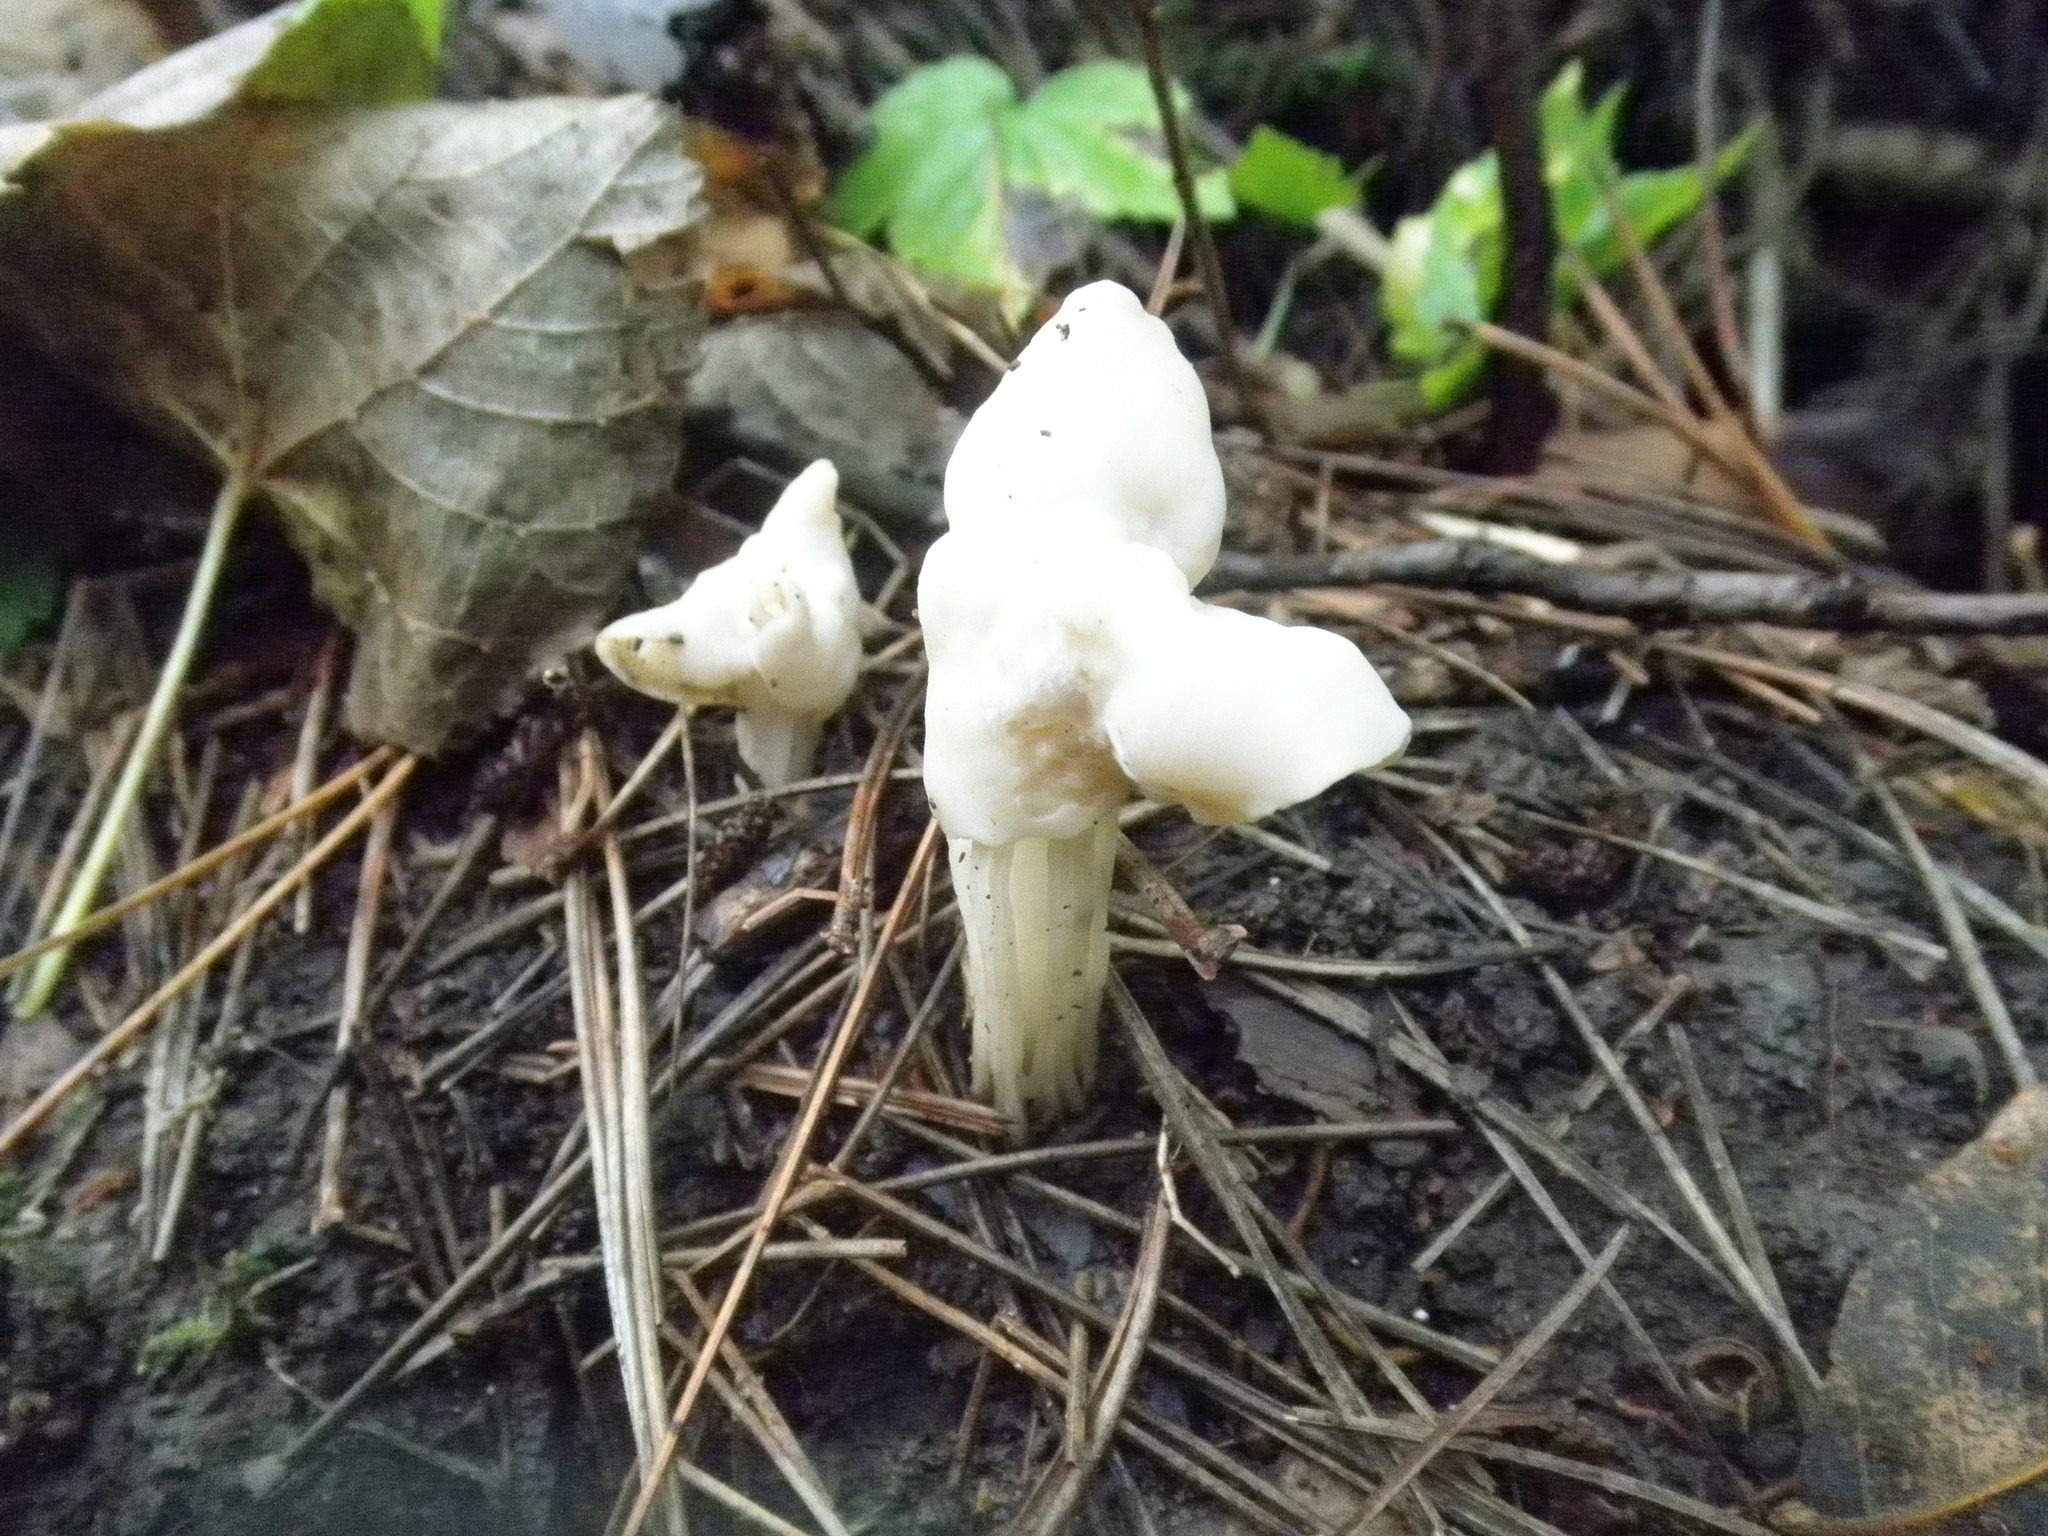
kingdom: Fungi
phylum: Ascomycota
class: Pezizomycetes
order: Pezizales
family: Helvellaceae
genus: Helvella
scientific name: Helvella crispa
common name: White saddle
